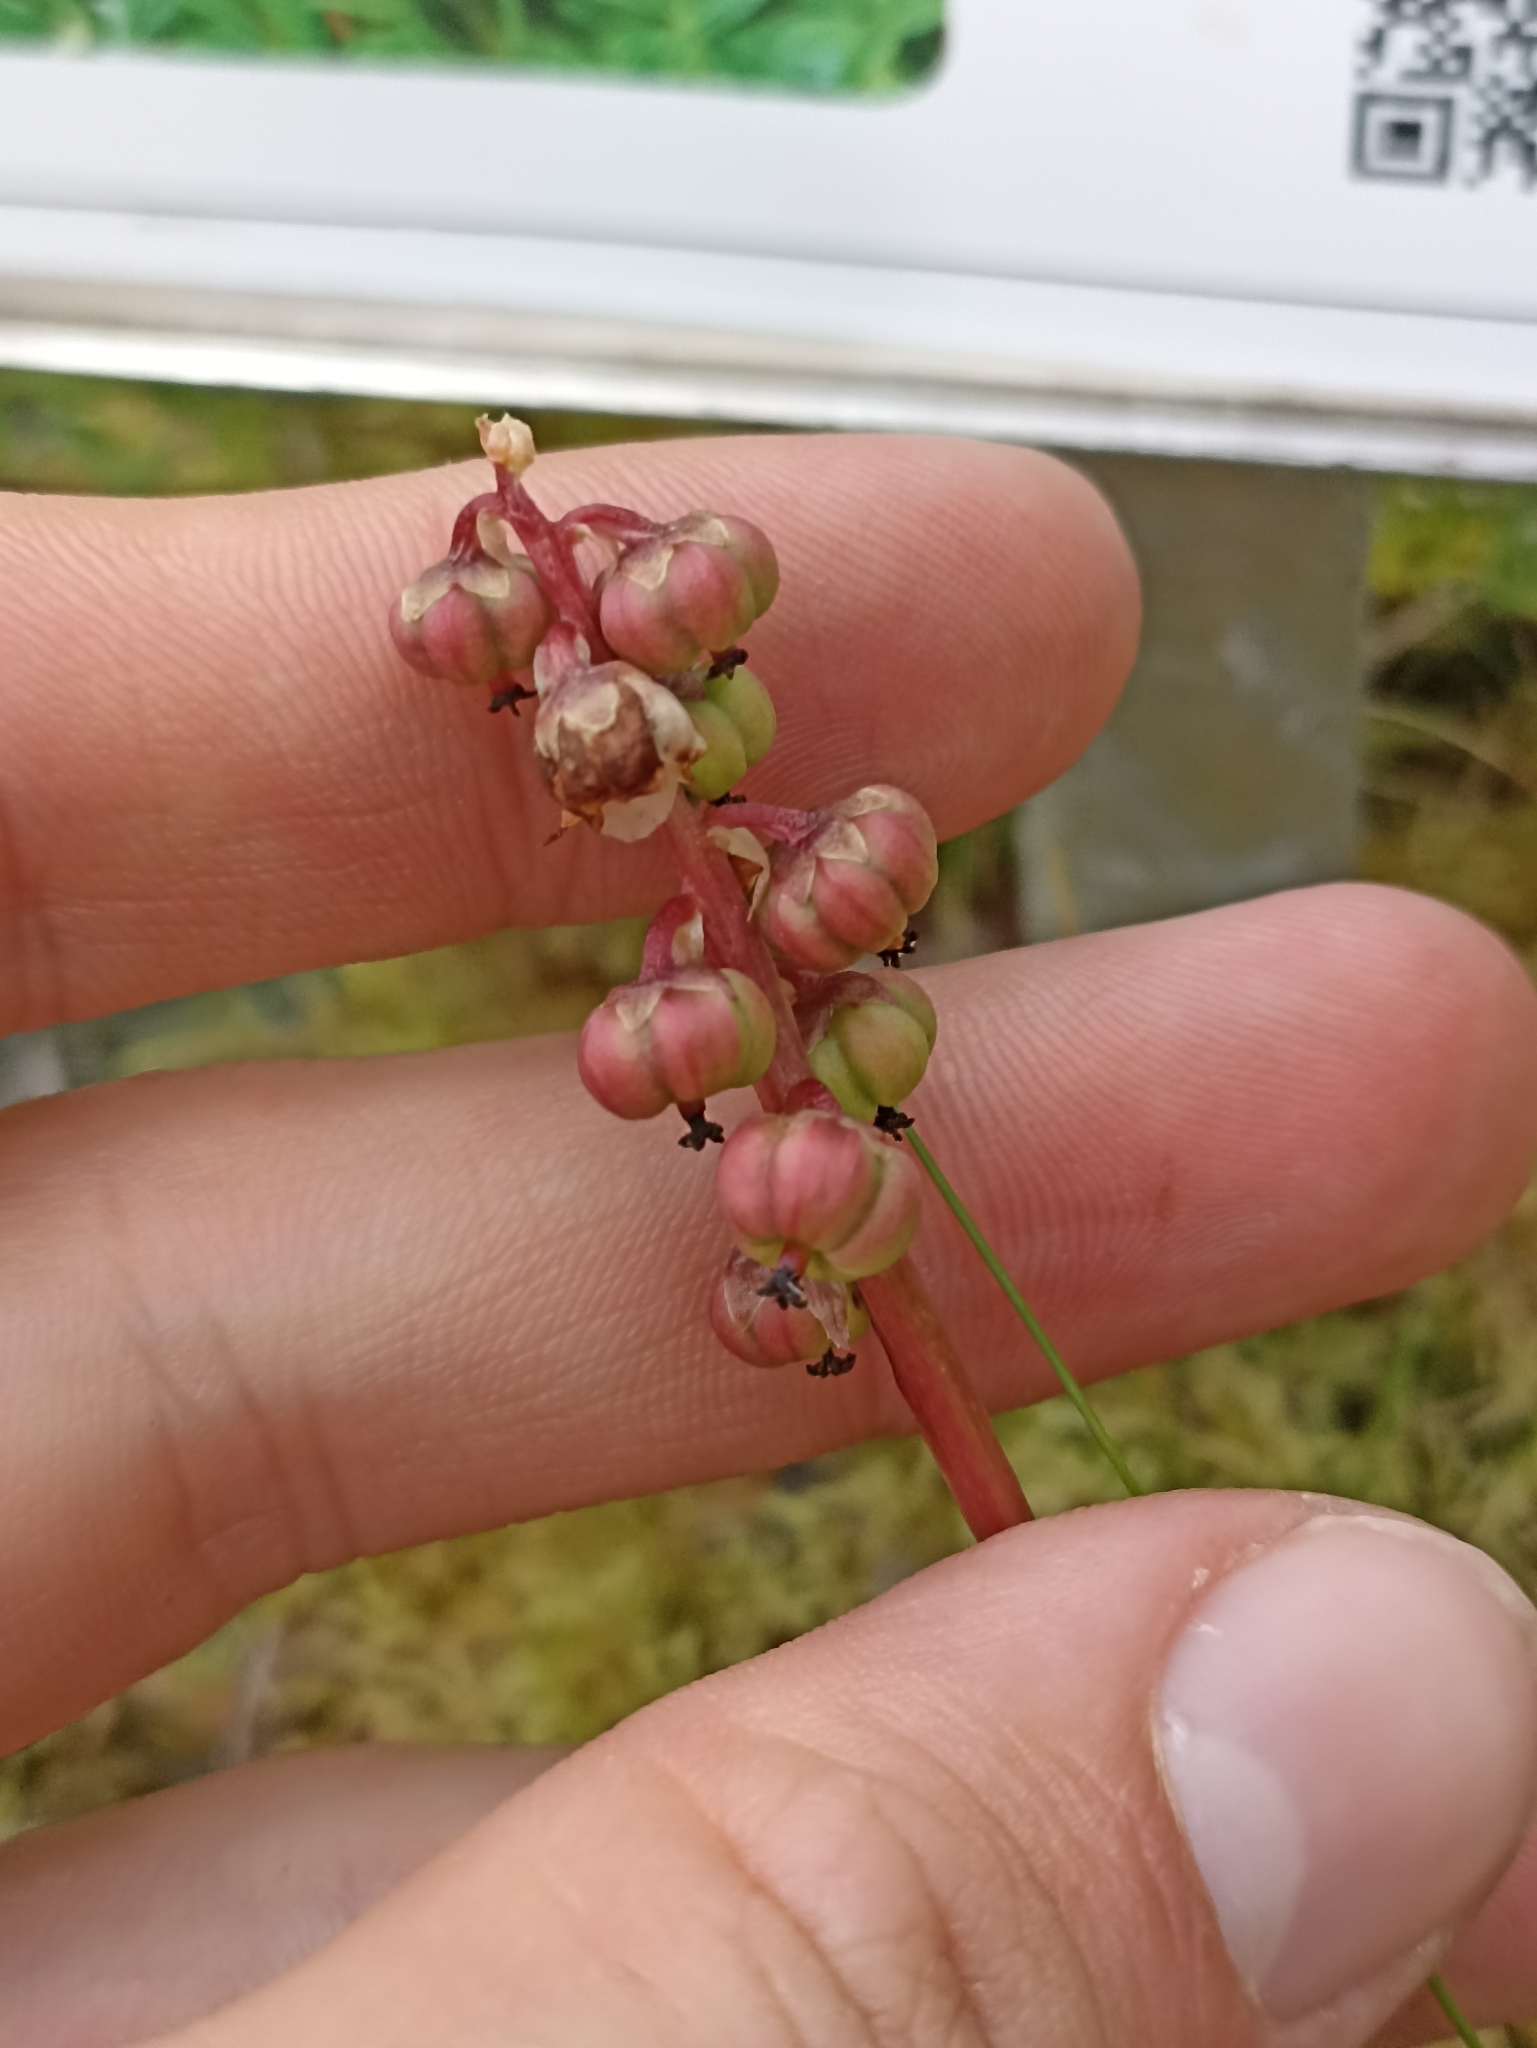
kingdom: Plantae
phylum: Tracheophyta
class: Magnoliopsida
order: Ericales
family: Ericaceae
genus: Pyrola
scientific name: Pyrola minor
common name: Common wintergreen
